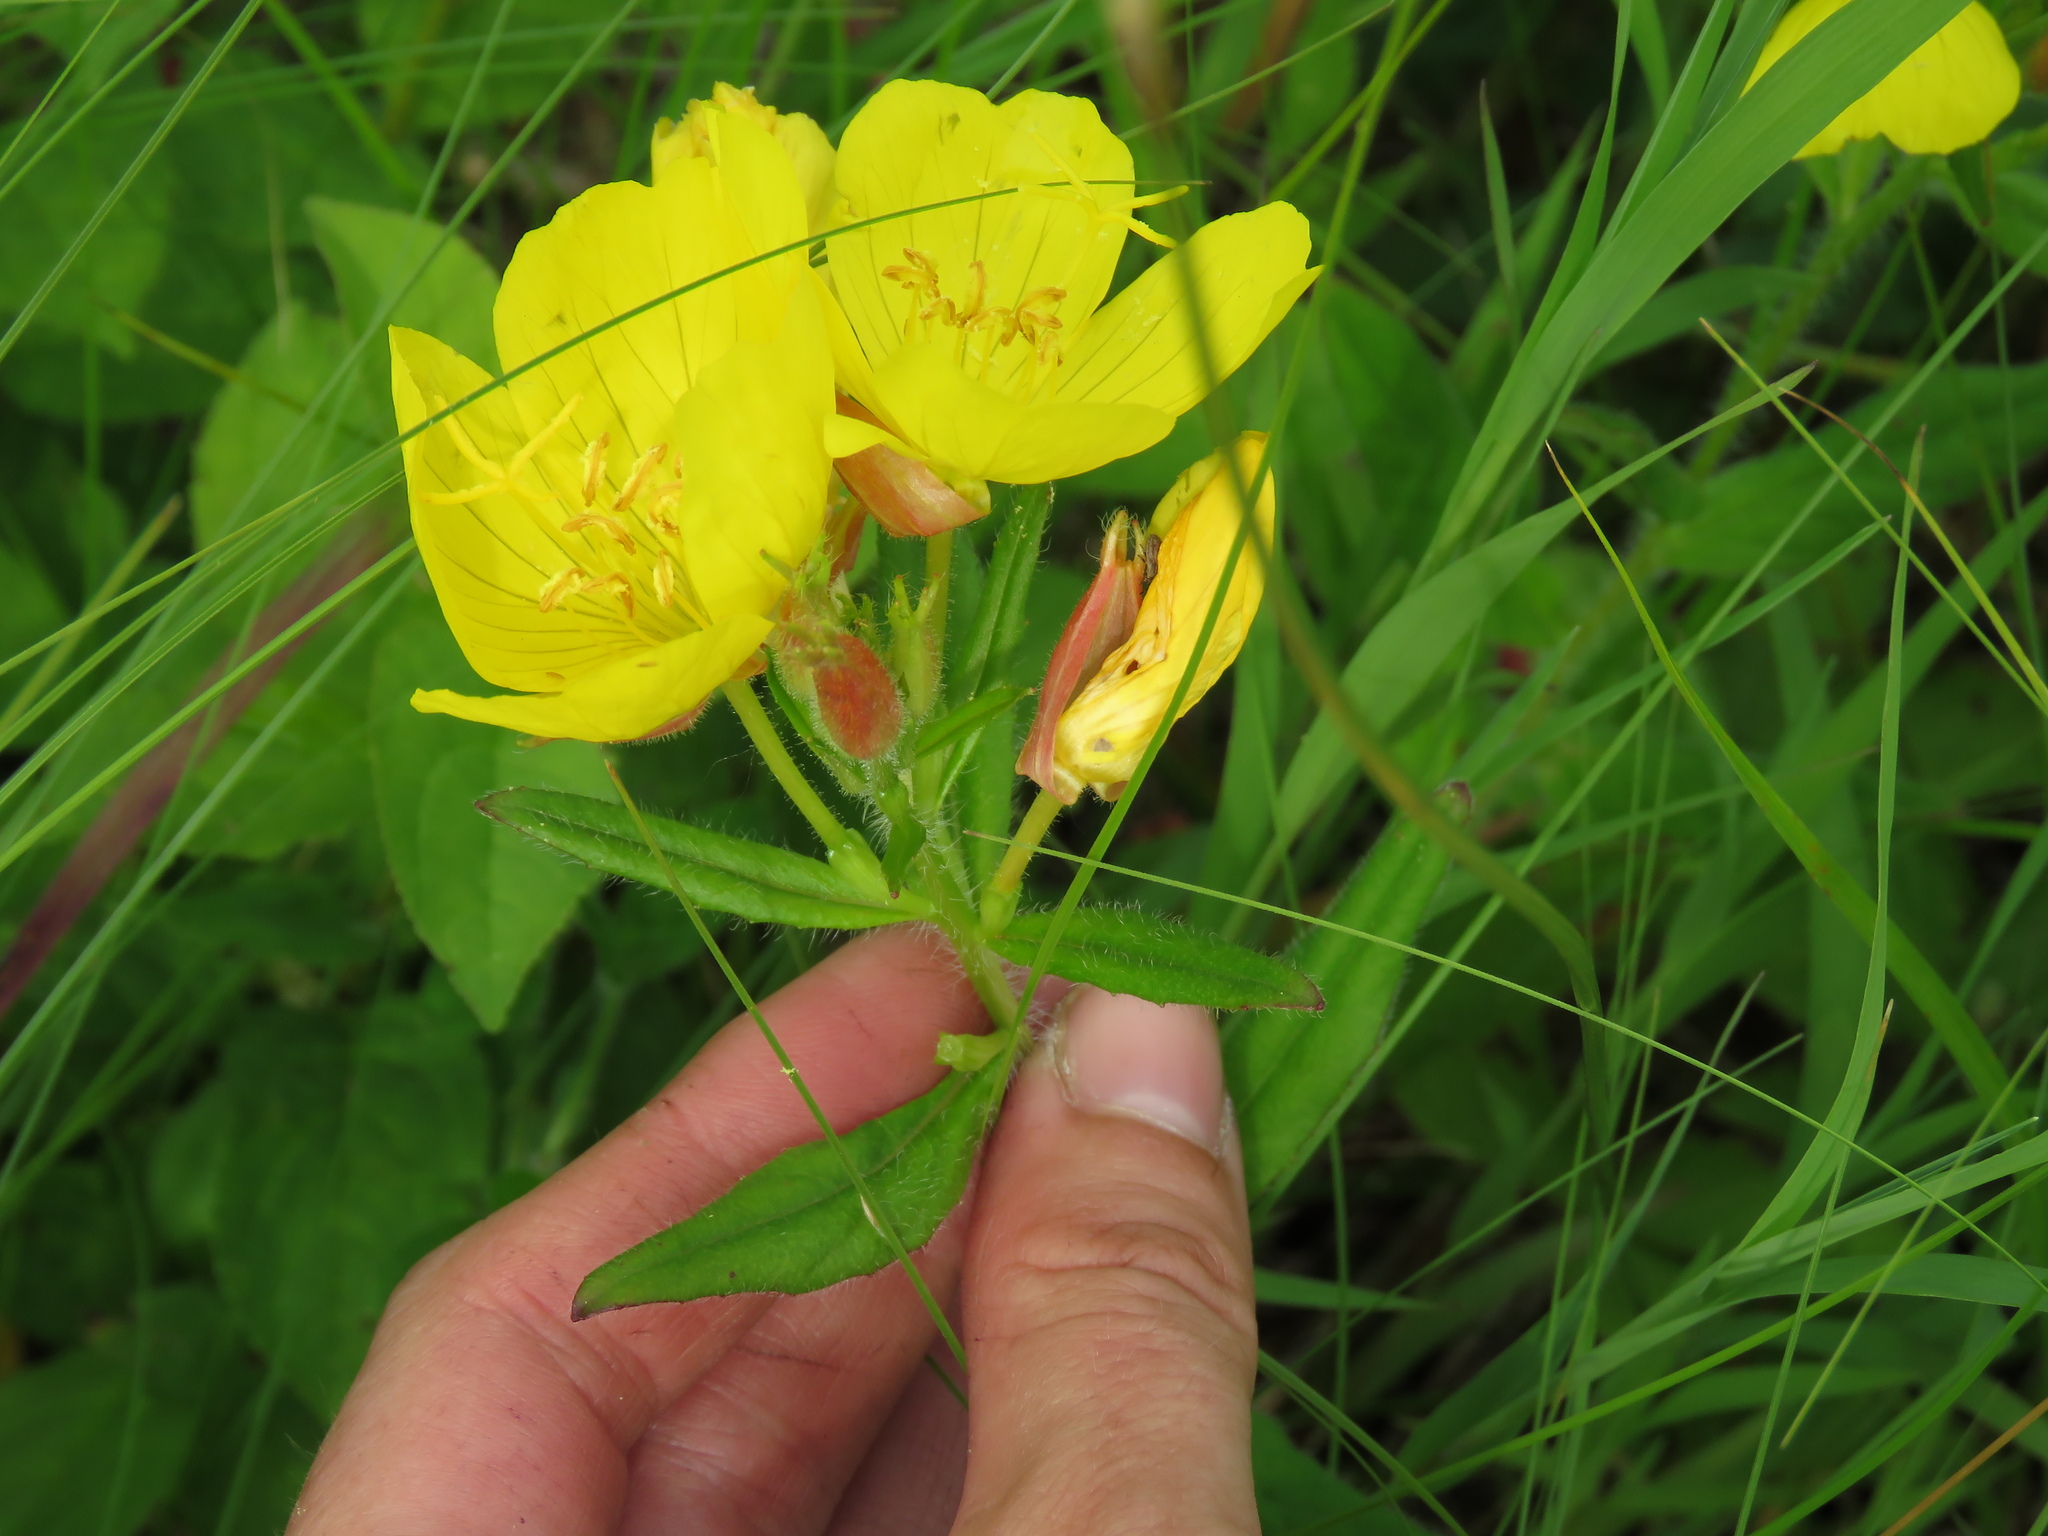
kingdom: Plantae
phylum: Tracheophyta
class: Magnoliopsida
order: Myrtales
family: Onagraceae
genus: Oenothera
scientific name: Oenothera pilosella
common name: Finely-pilose evening-primrose
